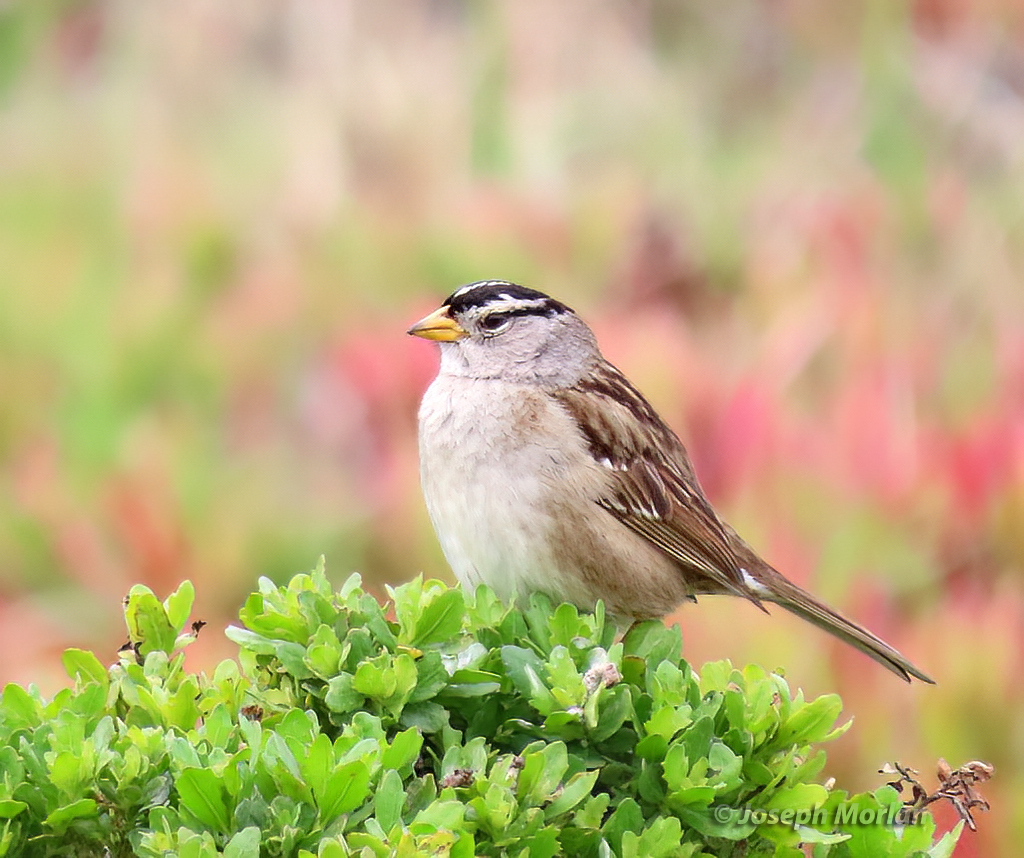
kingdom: Animalia
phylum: Chordata
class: Aves
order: Passeriformes
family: Passerellidae
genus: Zonotrichia
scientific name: Zonotrichia leucophrys
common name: White-crowned sparrow
